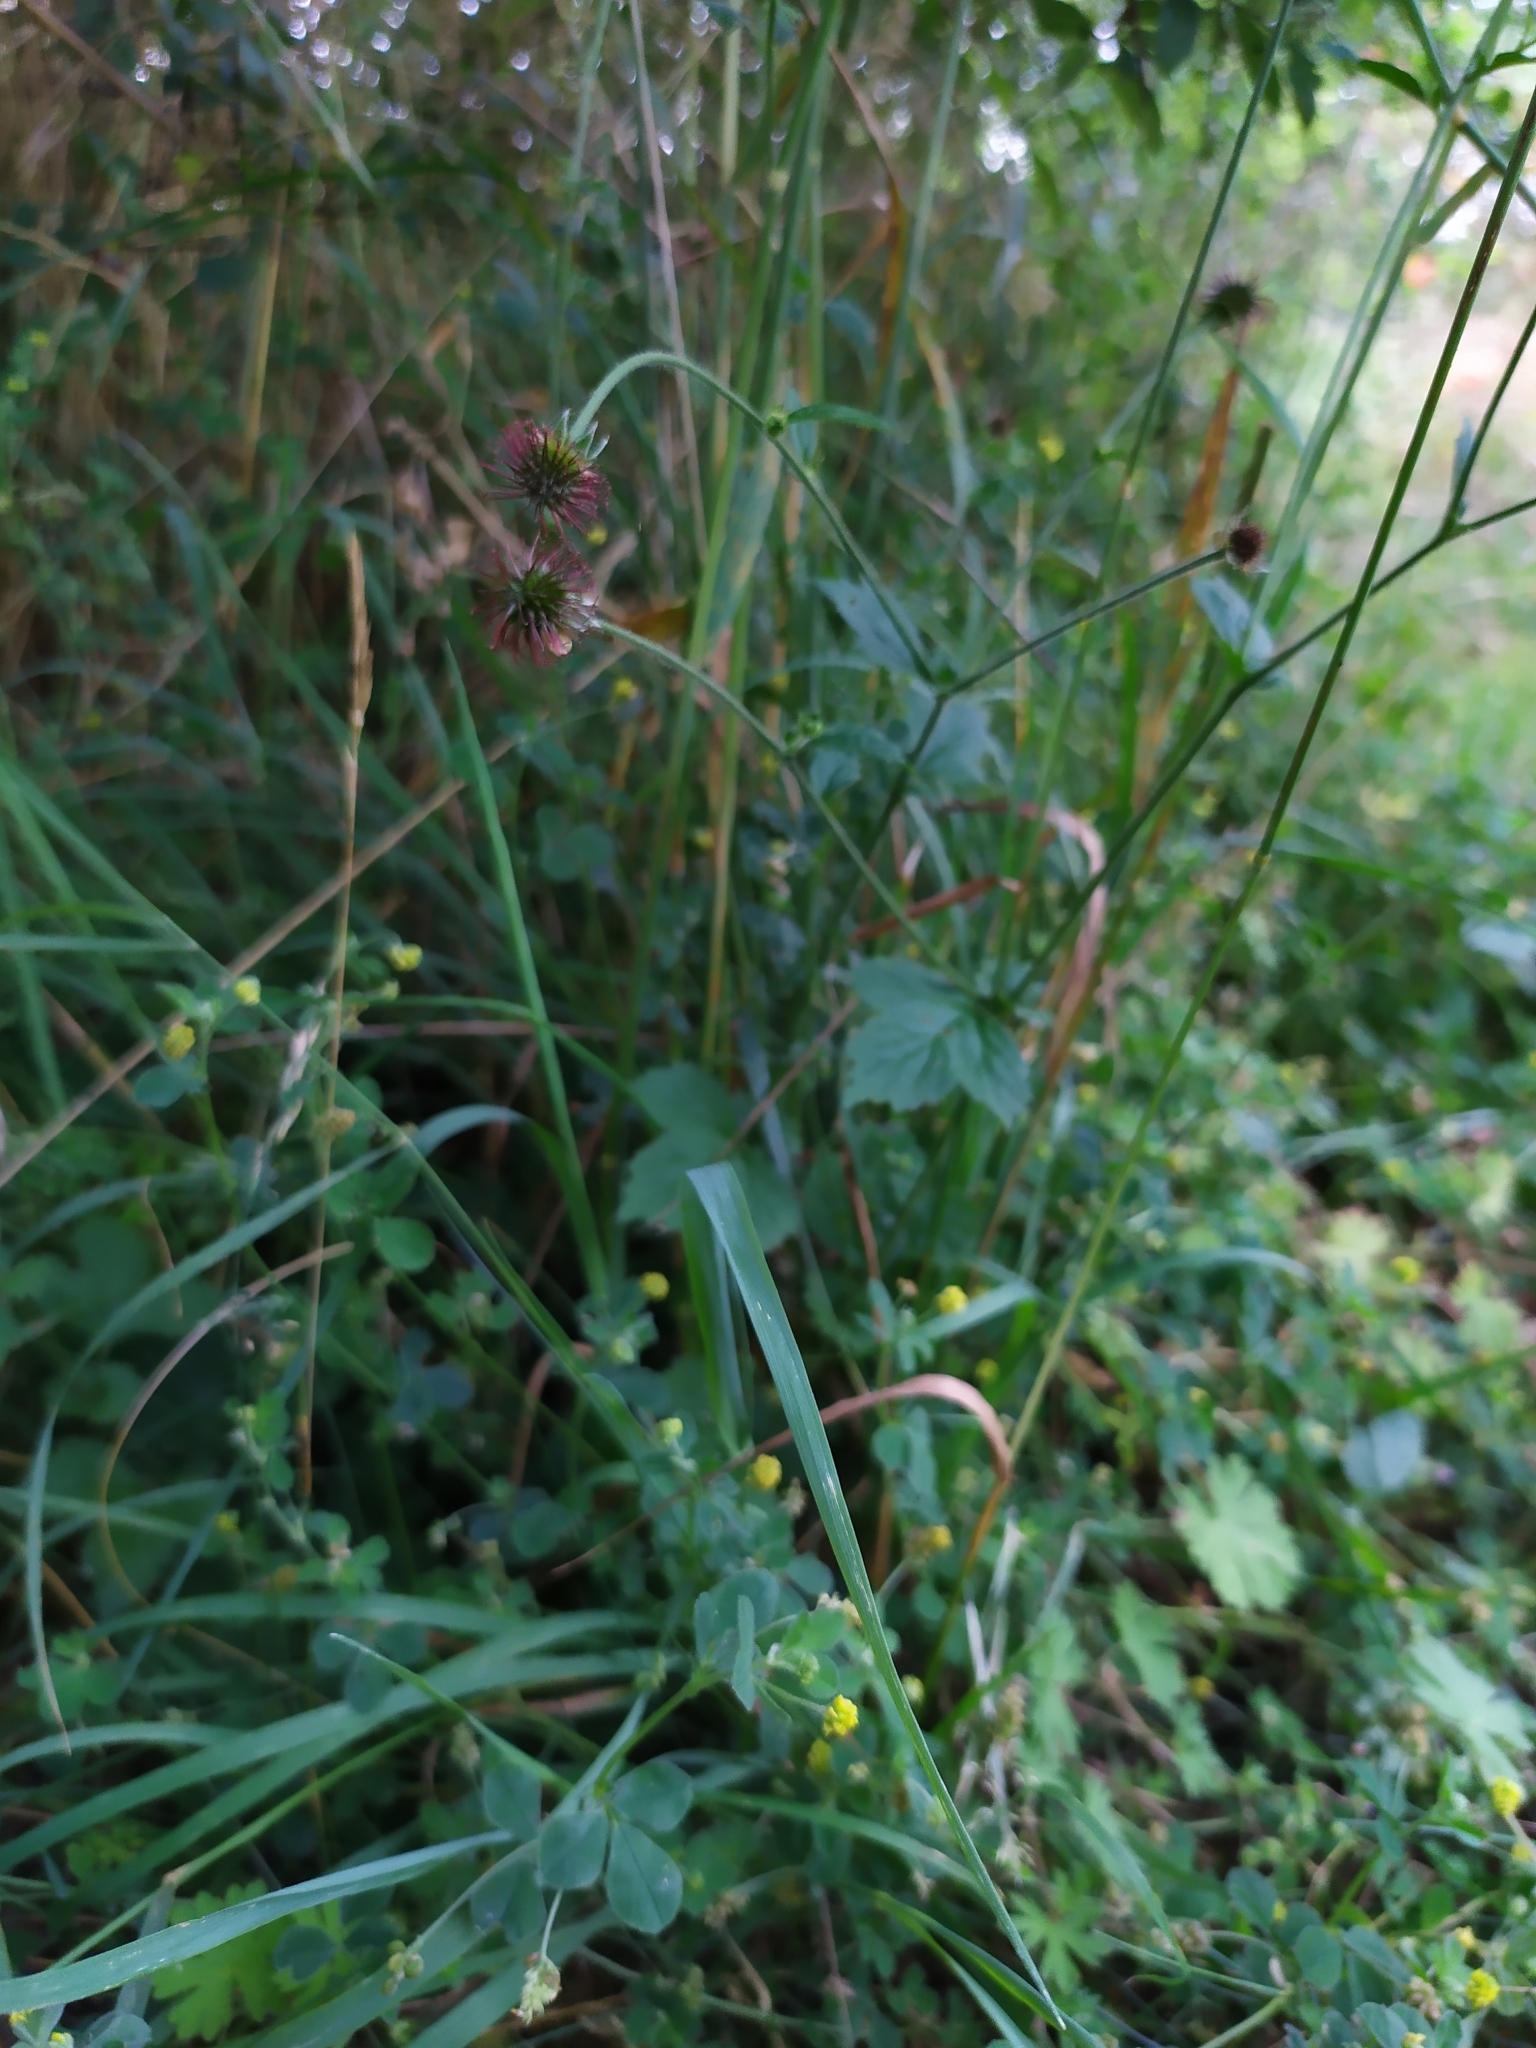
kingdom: Plantae
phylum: Tracheophyta
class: Magnoliopsida
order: Rosales
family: Rosaceae
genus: Geum
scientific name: Geum urbanum
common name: Wood avens
